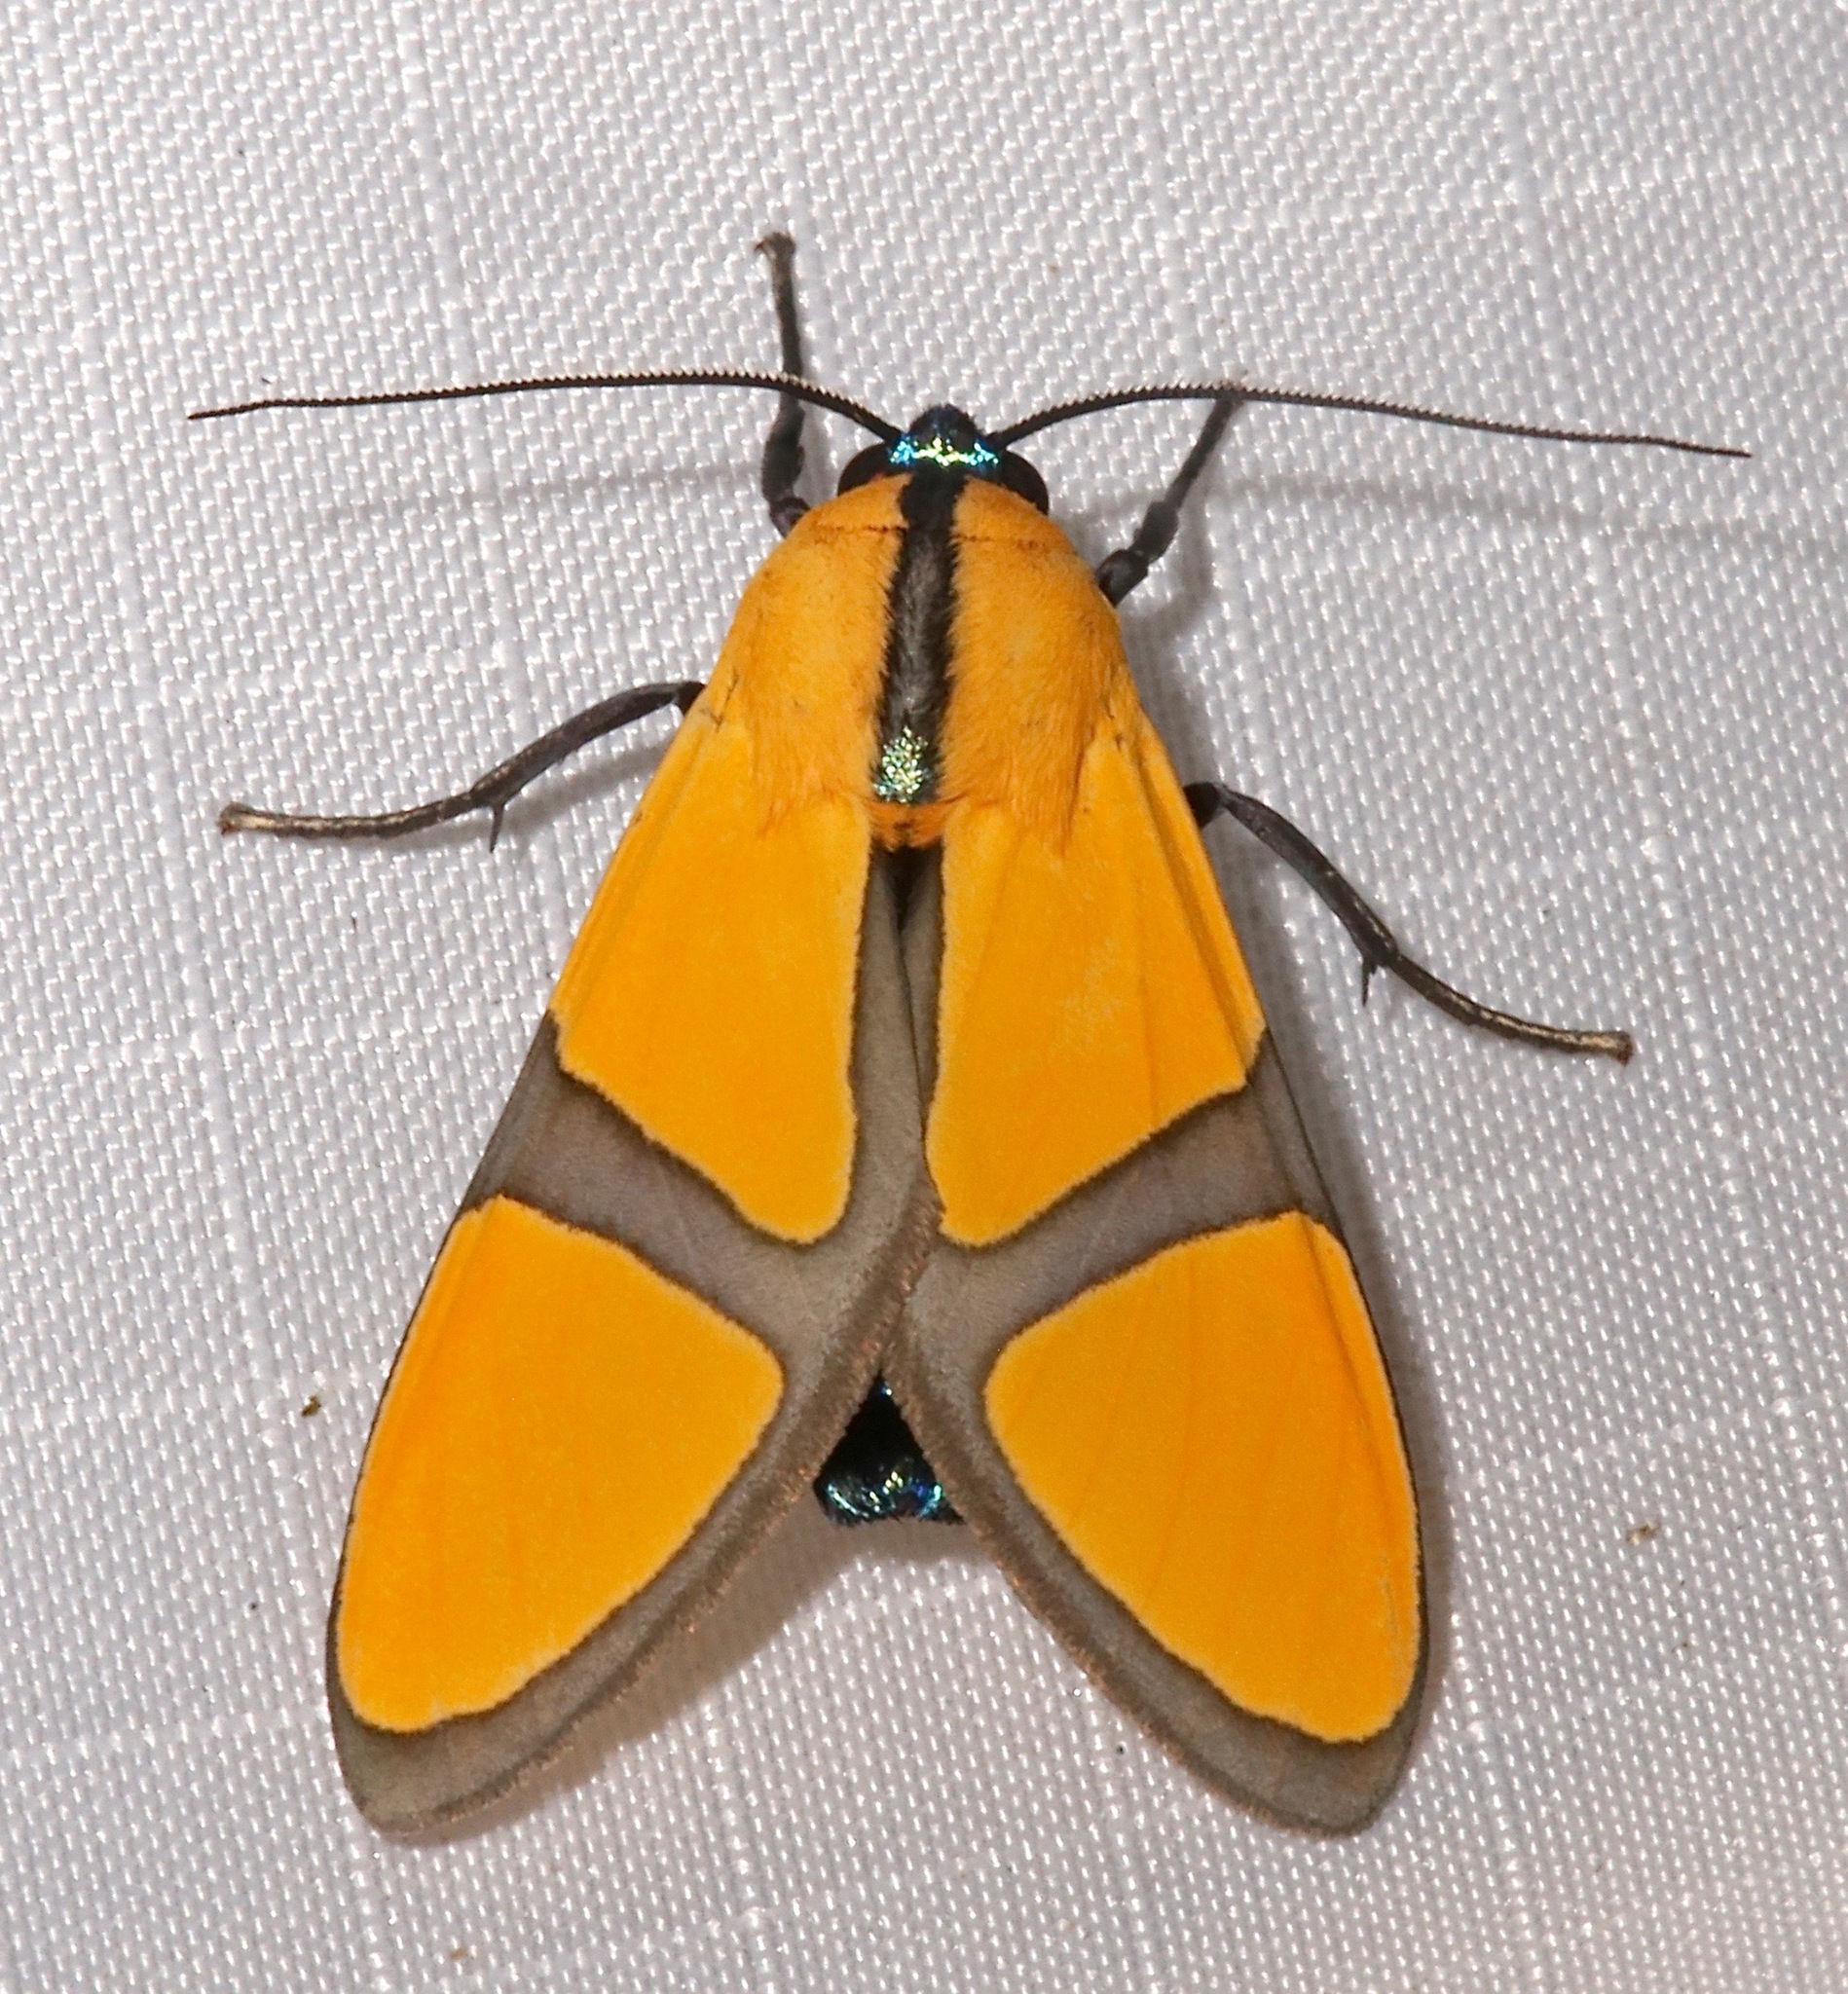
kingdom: Animalia
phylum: Arthropoda
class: Insecta
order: Lepidoptera
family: Erebidae
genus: Ormetica
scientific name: Ormetica ameoides
